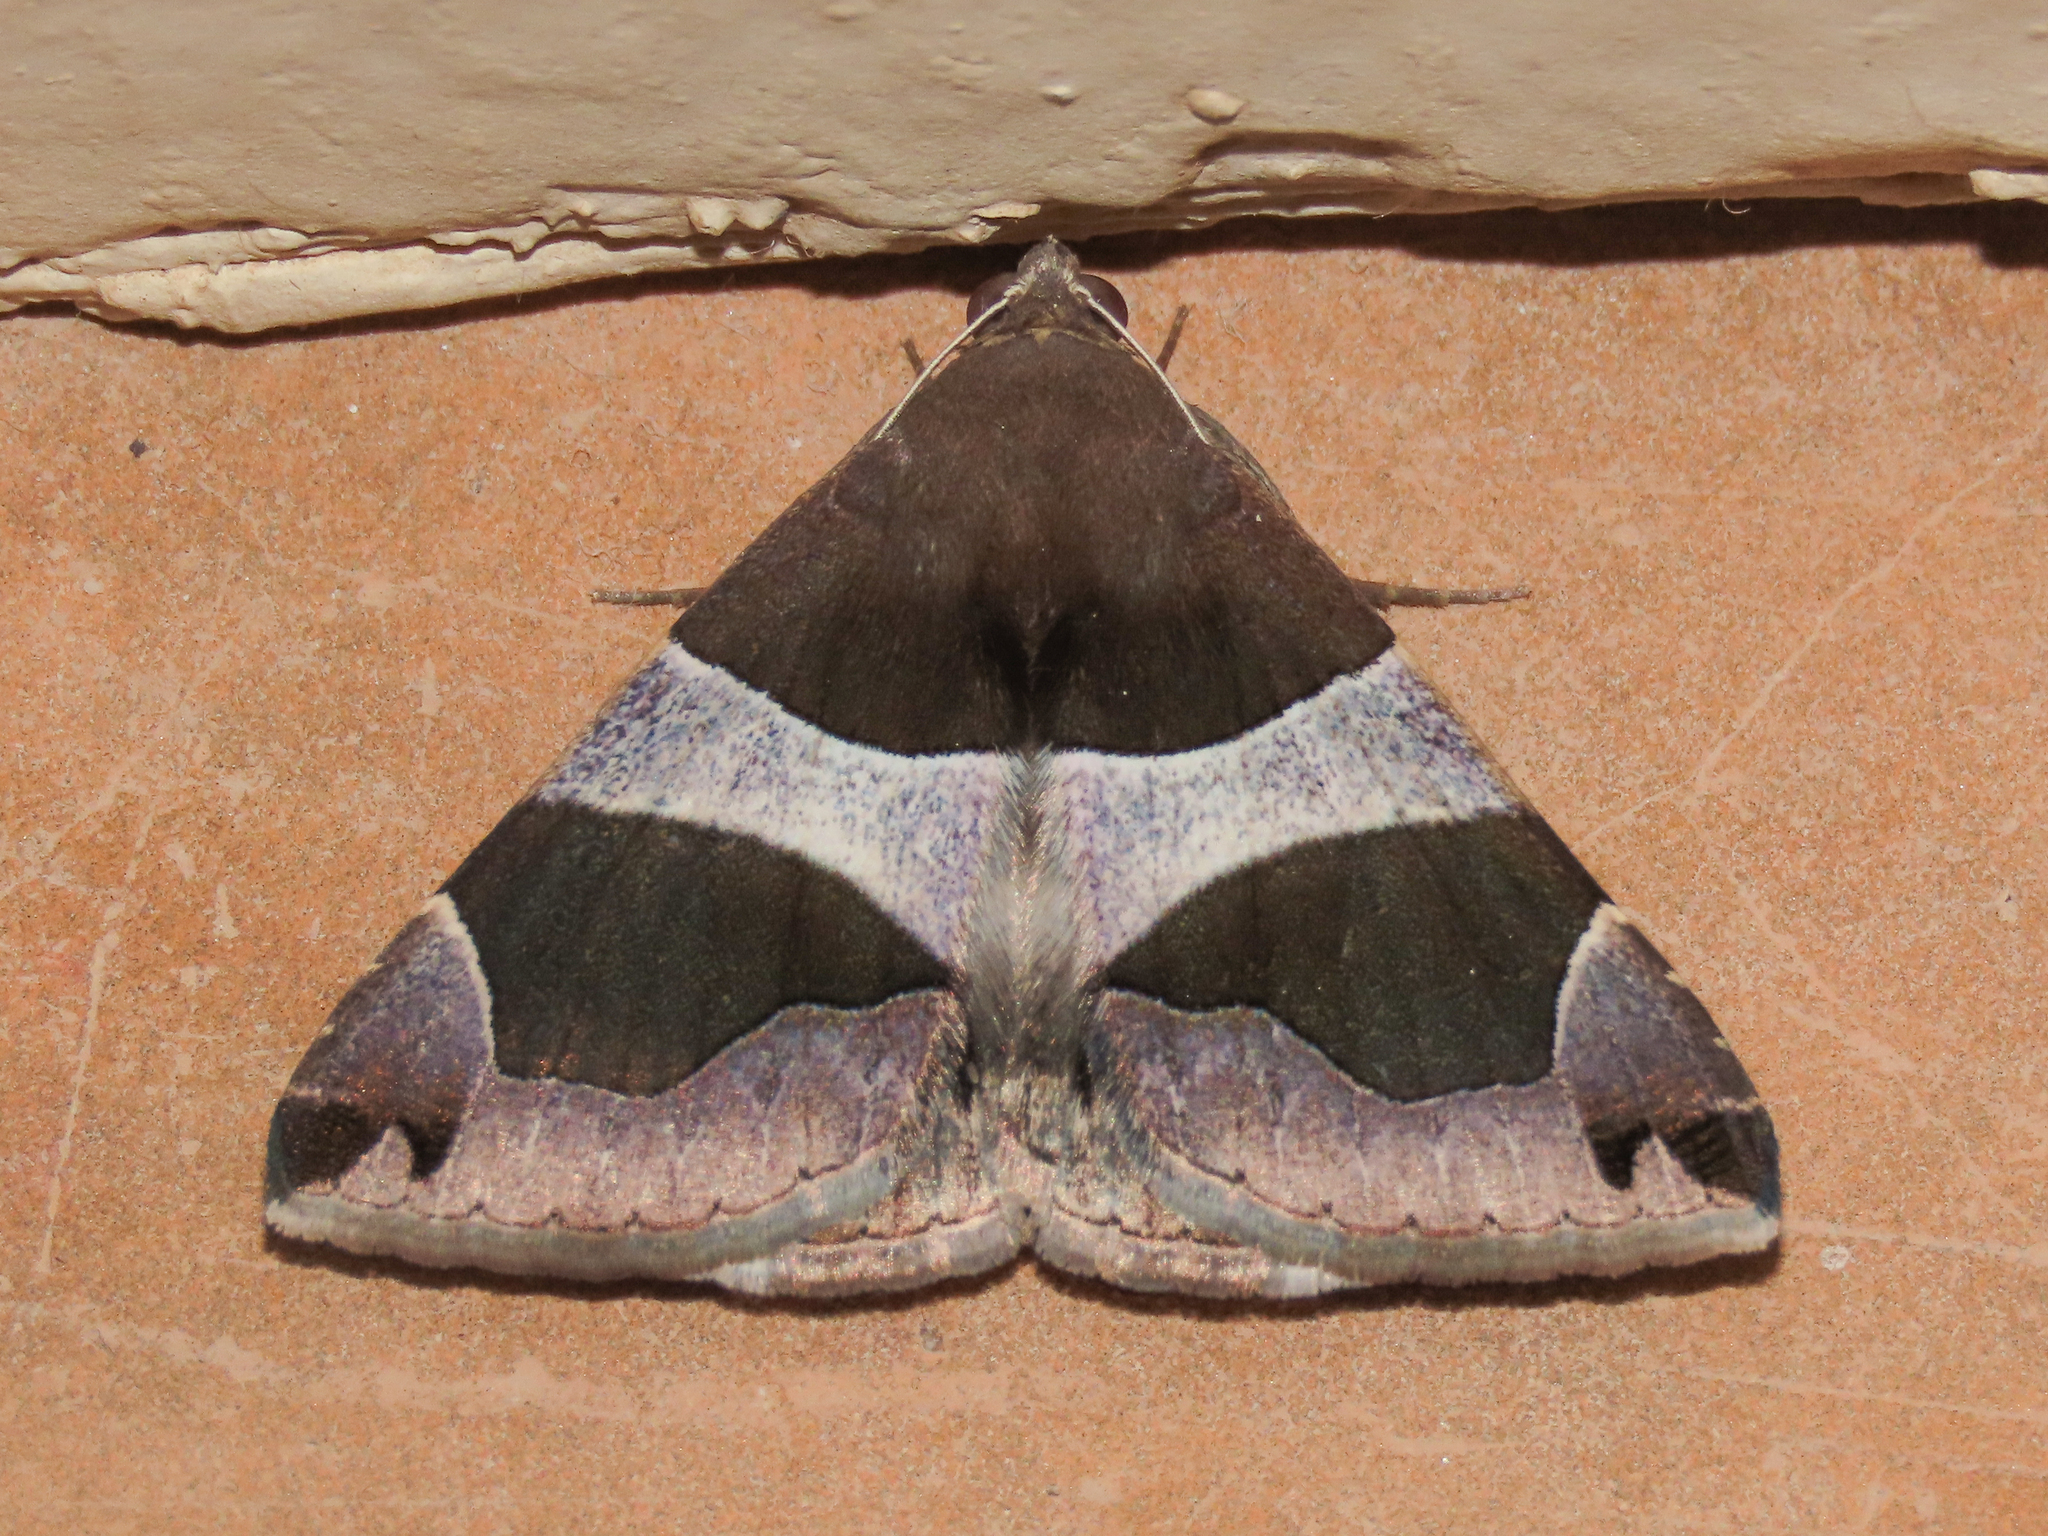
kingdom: Animalia
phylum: Arthropoda
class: Insecta
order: Lepidoptera
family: Erebidae
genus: Dysgonia
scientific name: Dysgonia torrida
